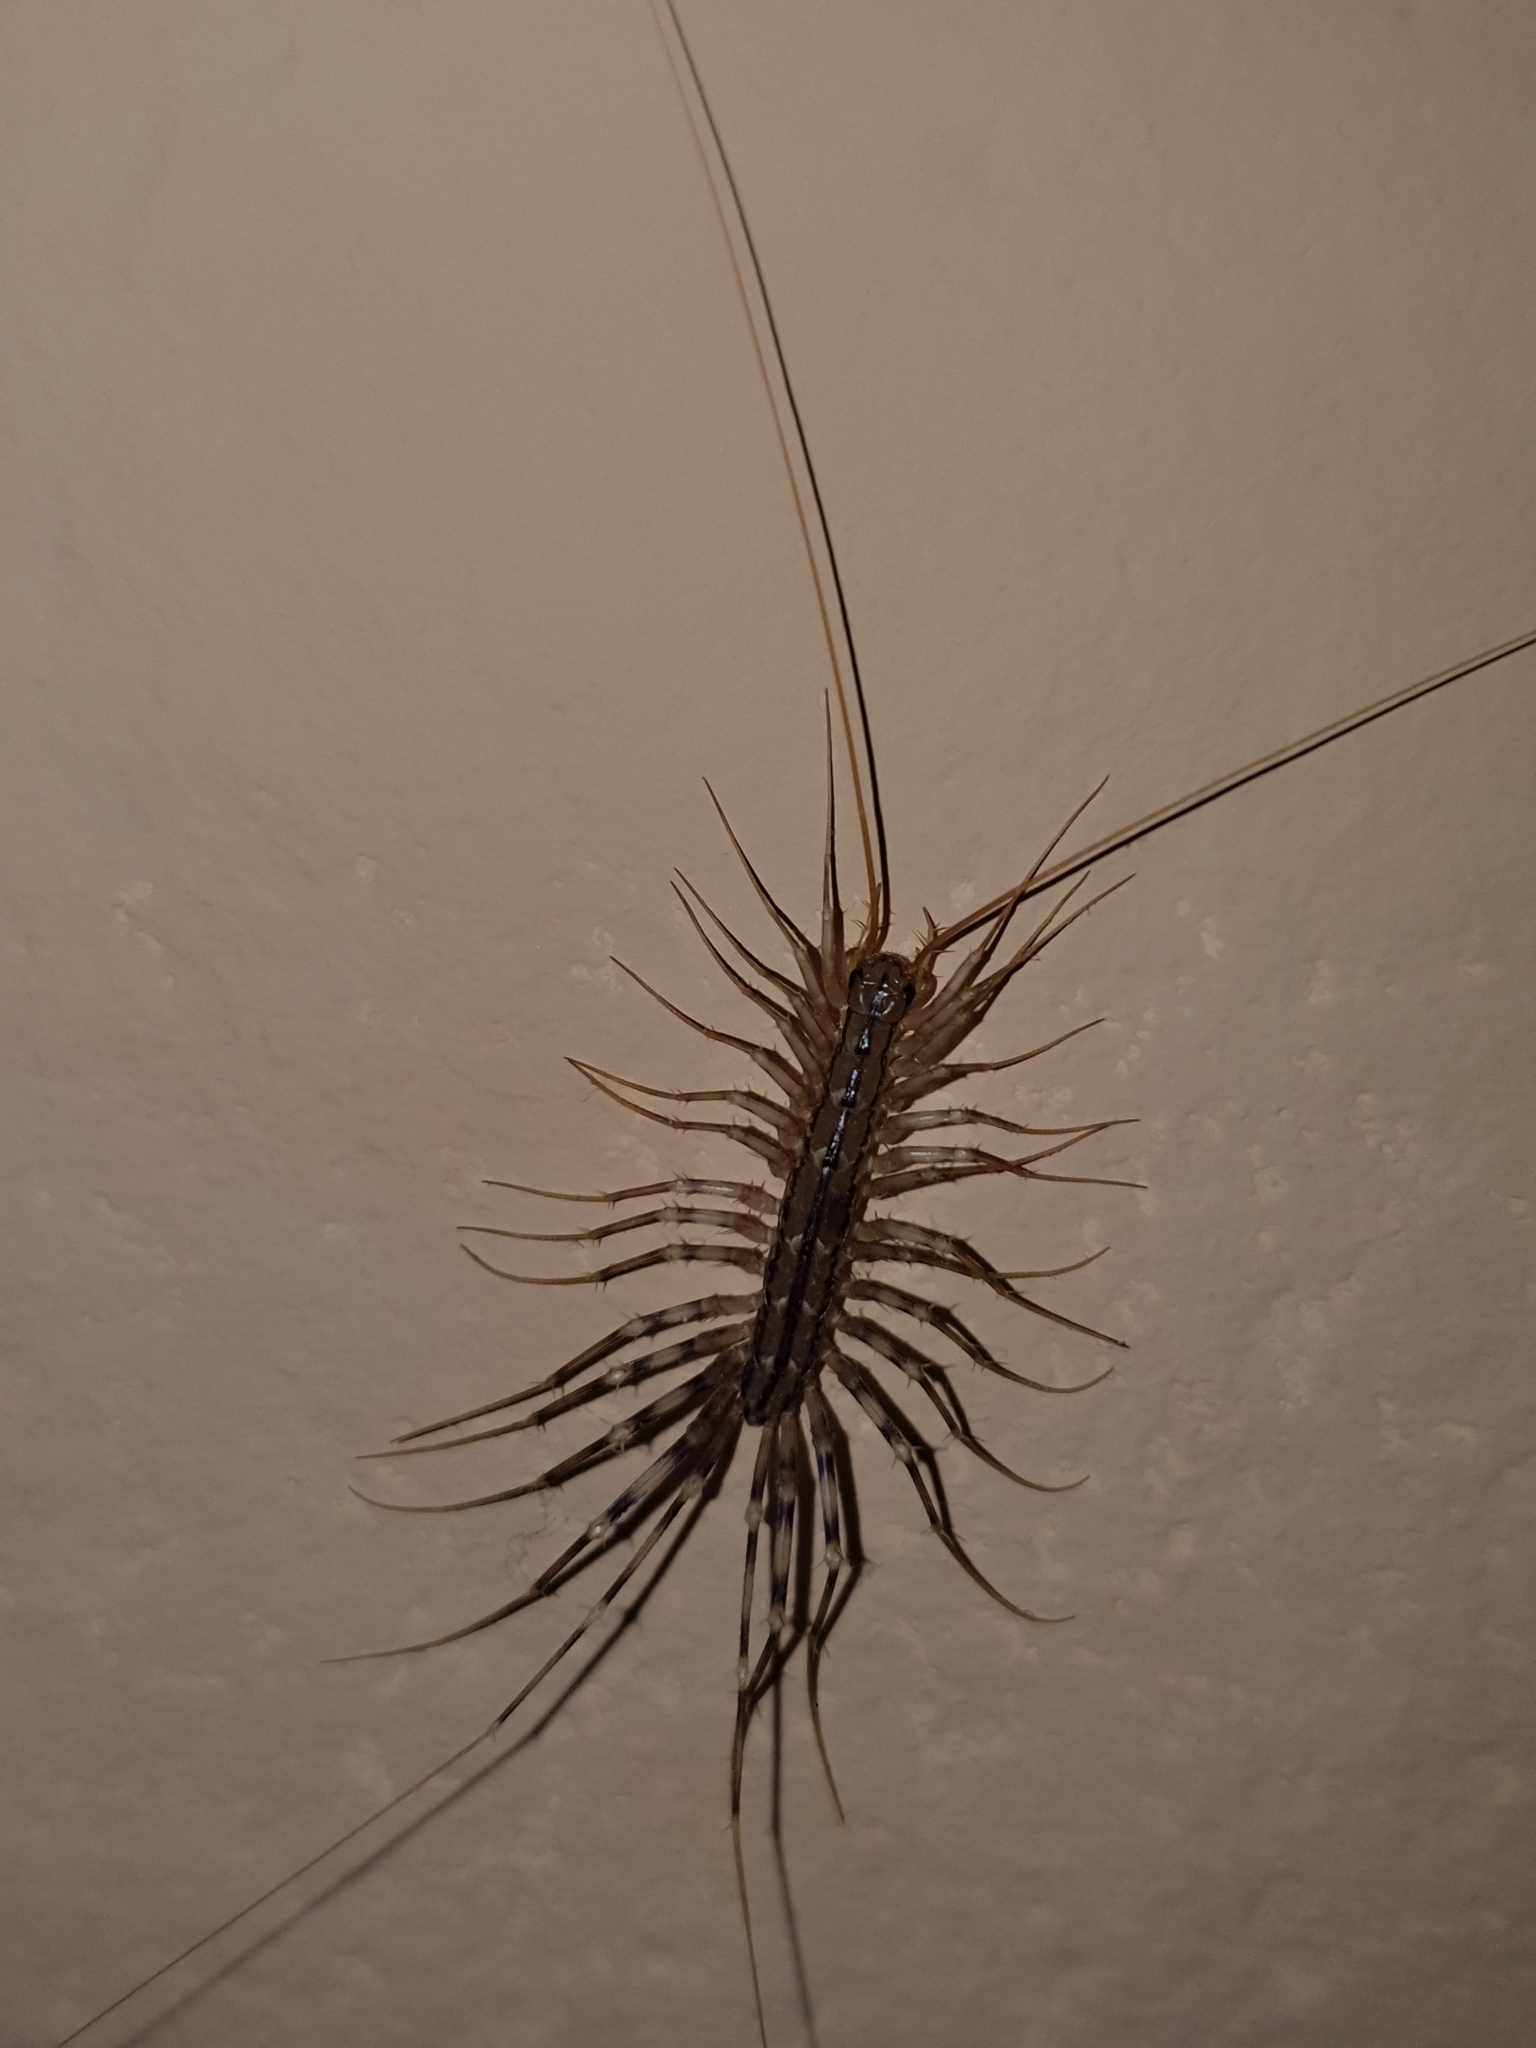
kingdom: Animalia
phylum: Arthropoda
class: Chilopoda
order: Scutigeromorpha
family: Scutigeridae
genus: Scutigera
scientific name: Scutigera coleoptrata
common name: House centipede
